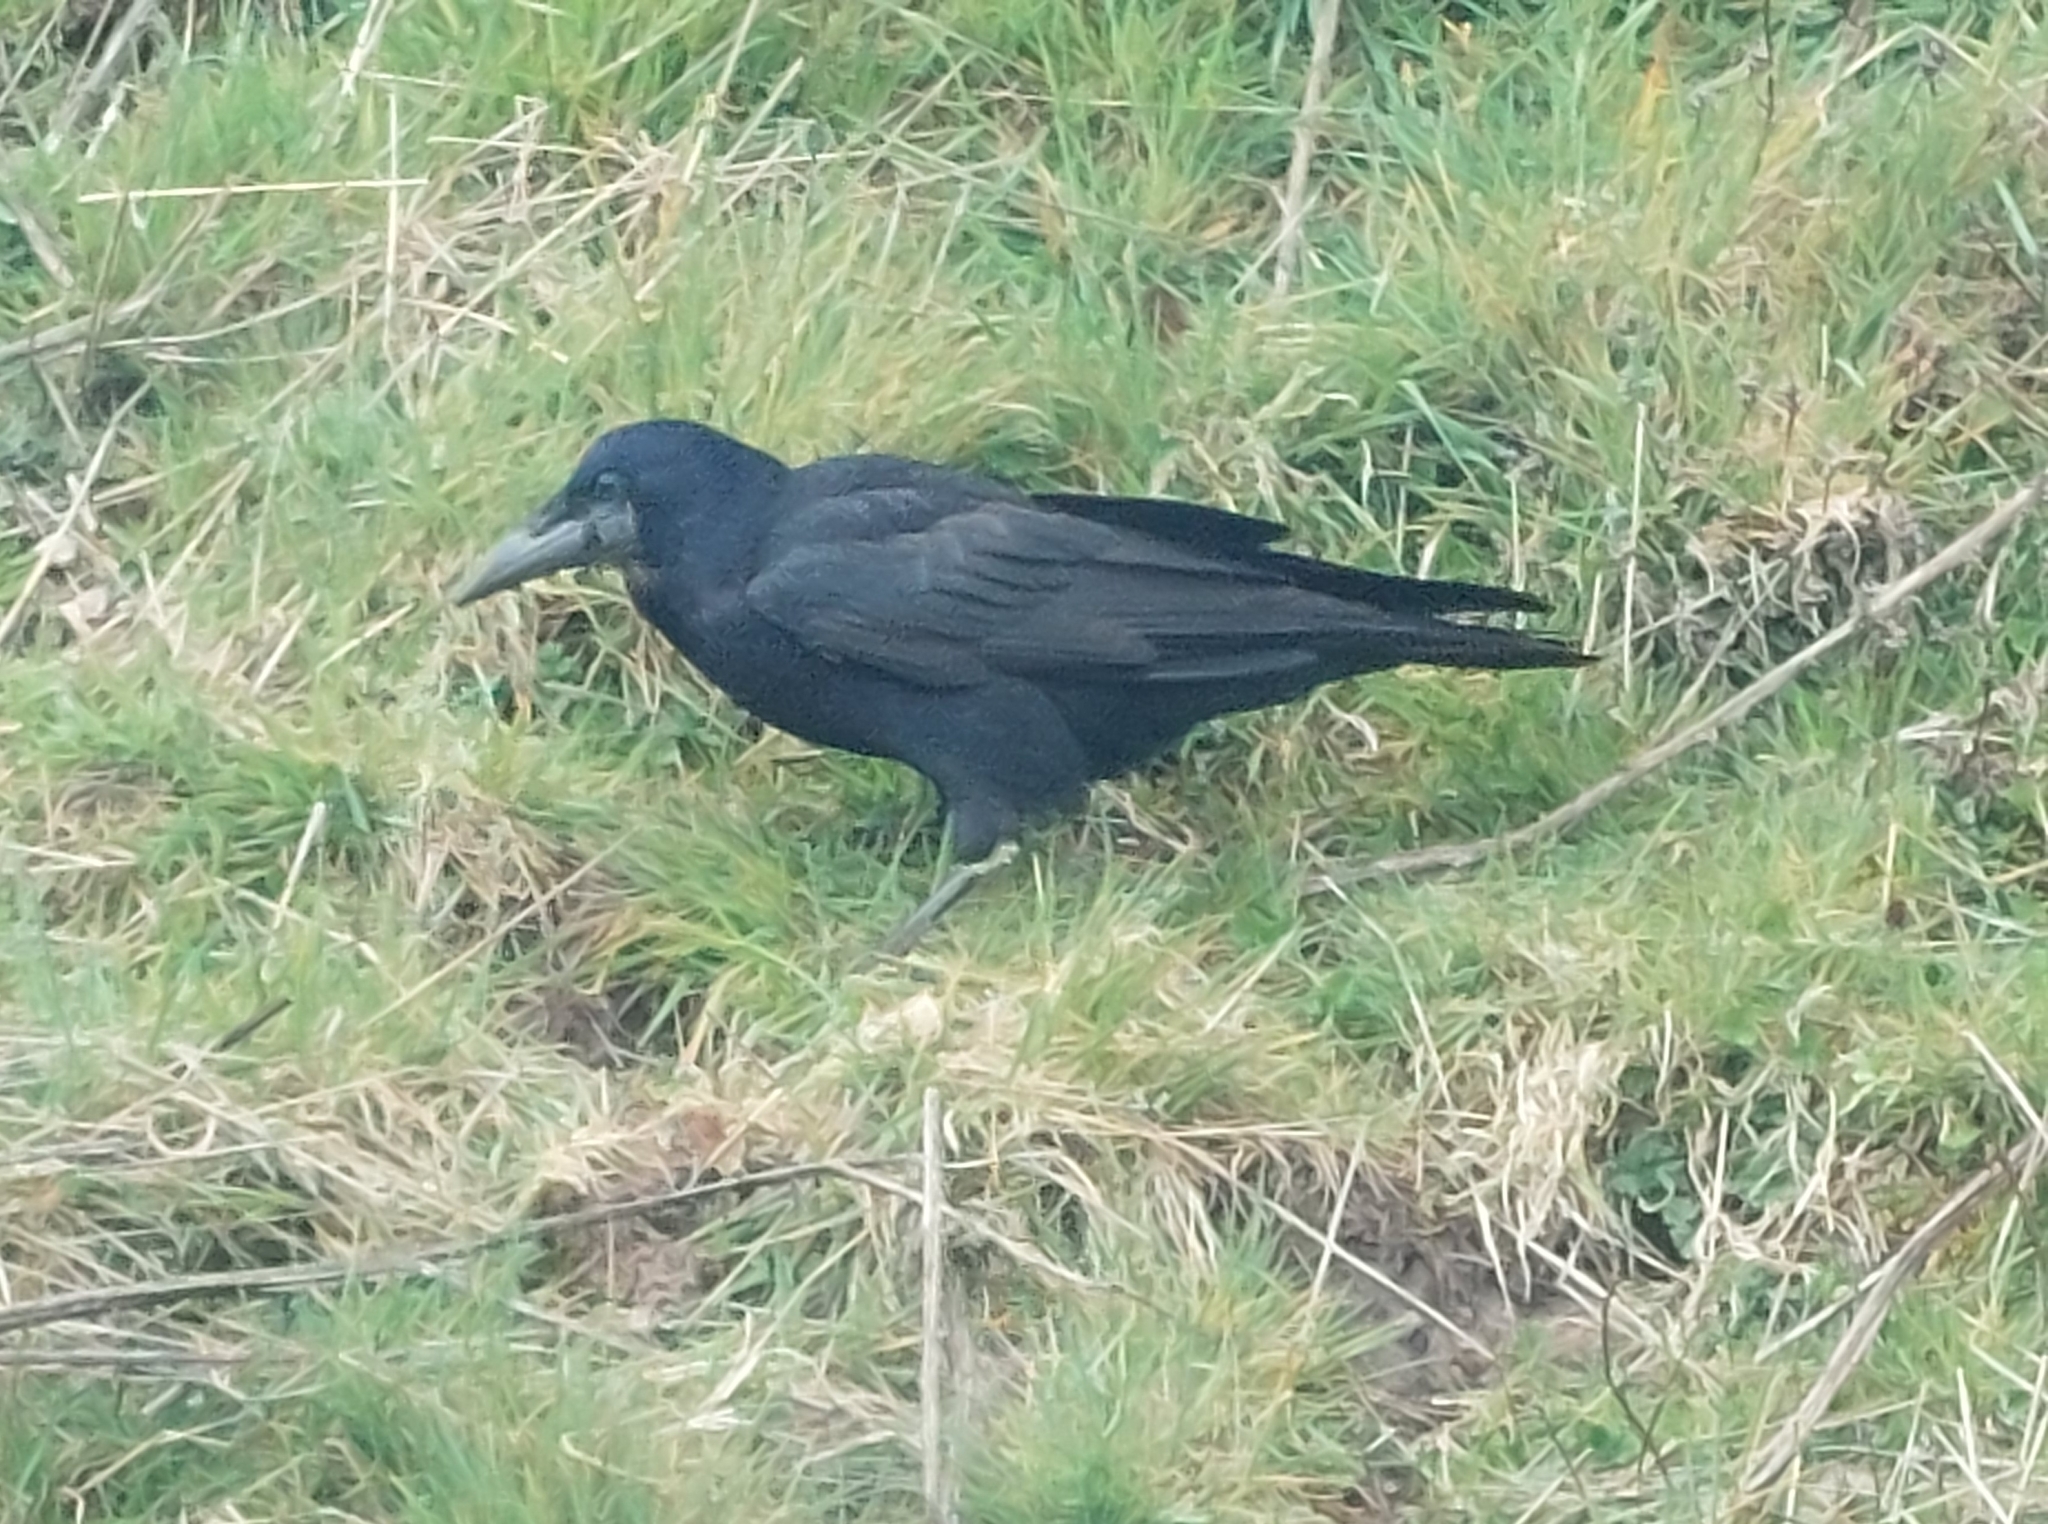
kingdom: Animalia
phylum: Chordata
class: Aves
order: Passeriformes
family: Corvidae
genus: Corvus
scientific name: Corvus frugilegus
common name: Rook
